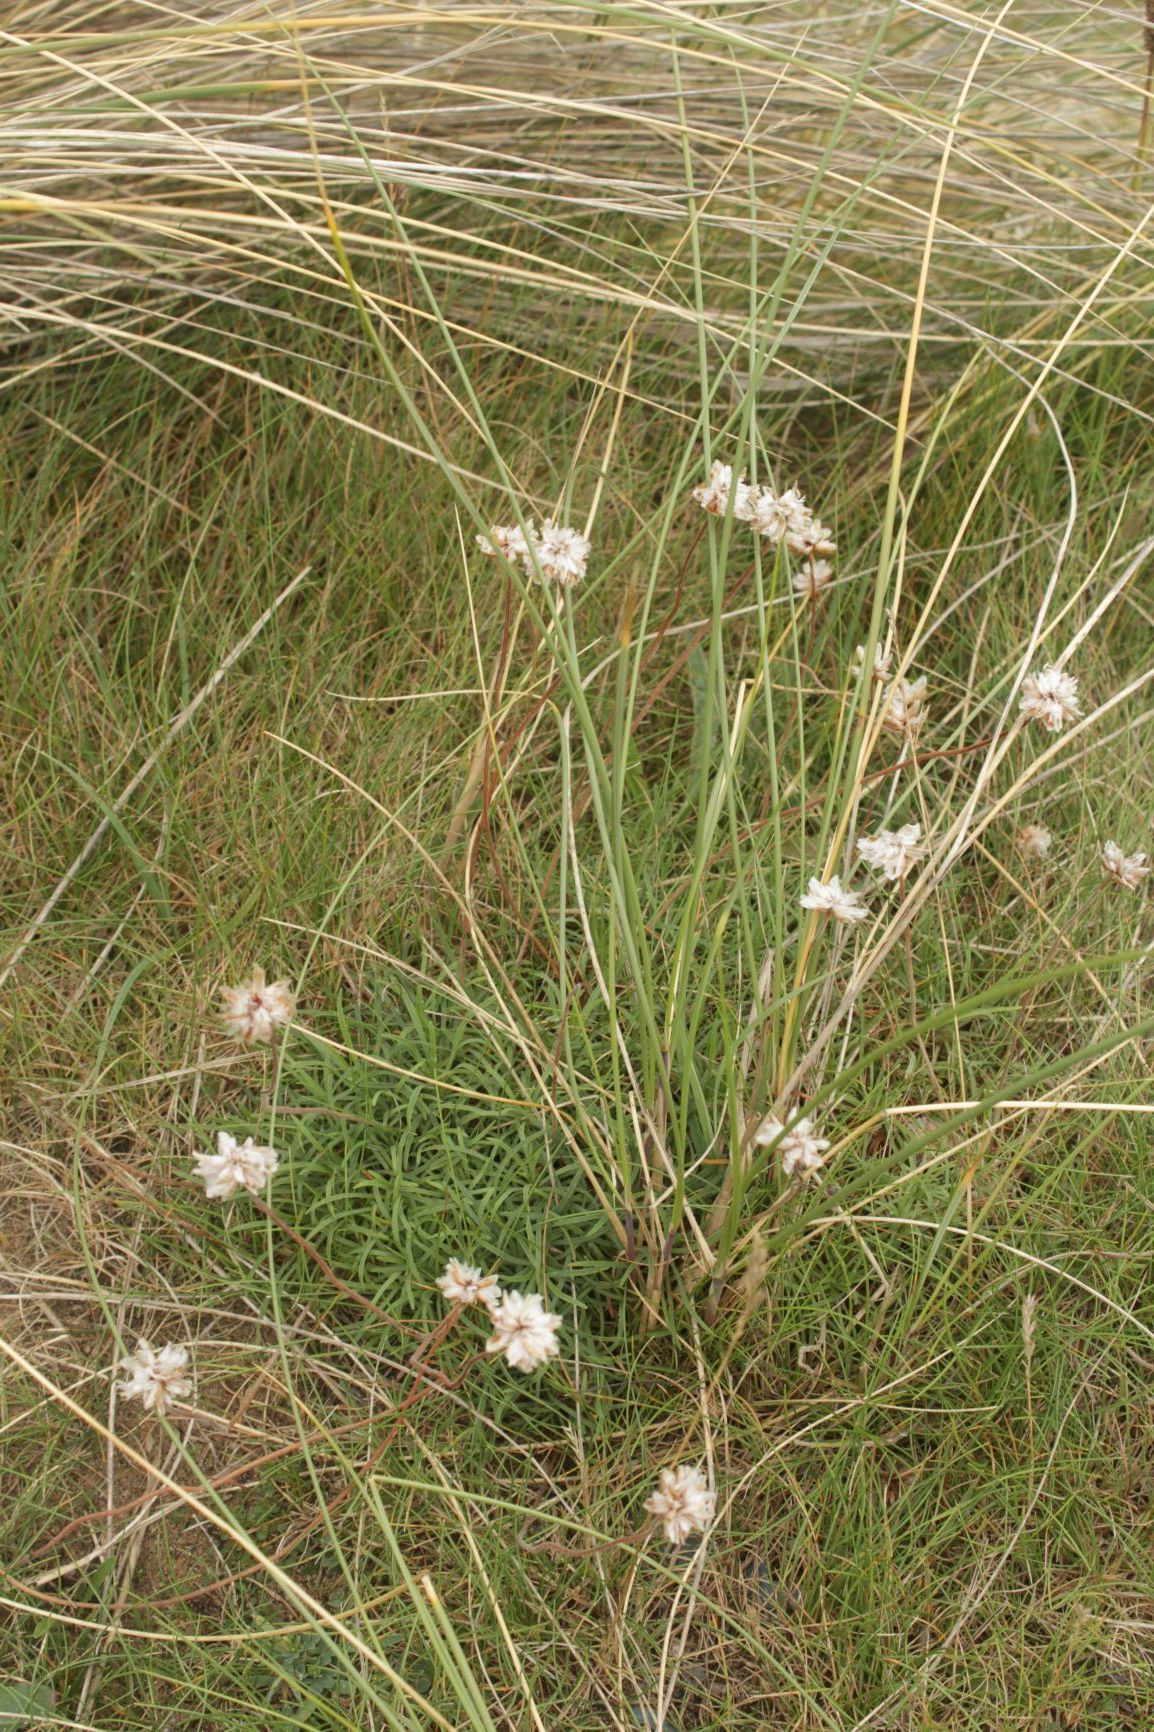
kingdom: Plantae
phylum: Tracheophyta
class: Magnoliopsida
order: Caryophyllales
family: Plumbaginaceae
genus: Armeria
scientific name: Armeria maritima
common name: Thrift
